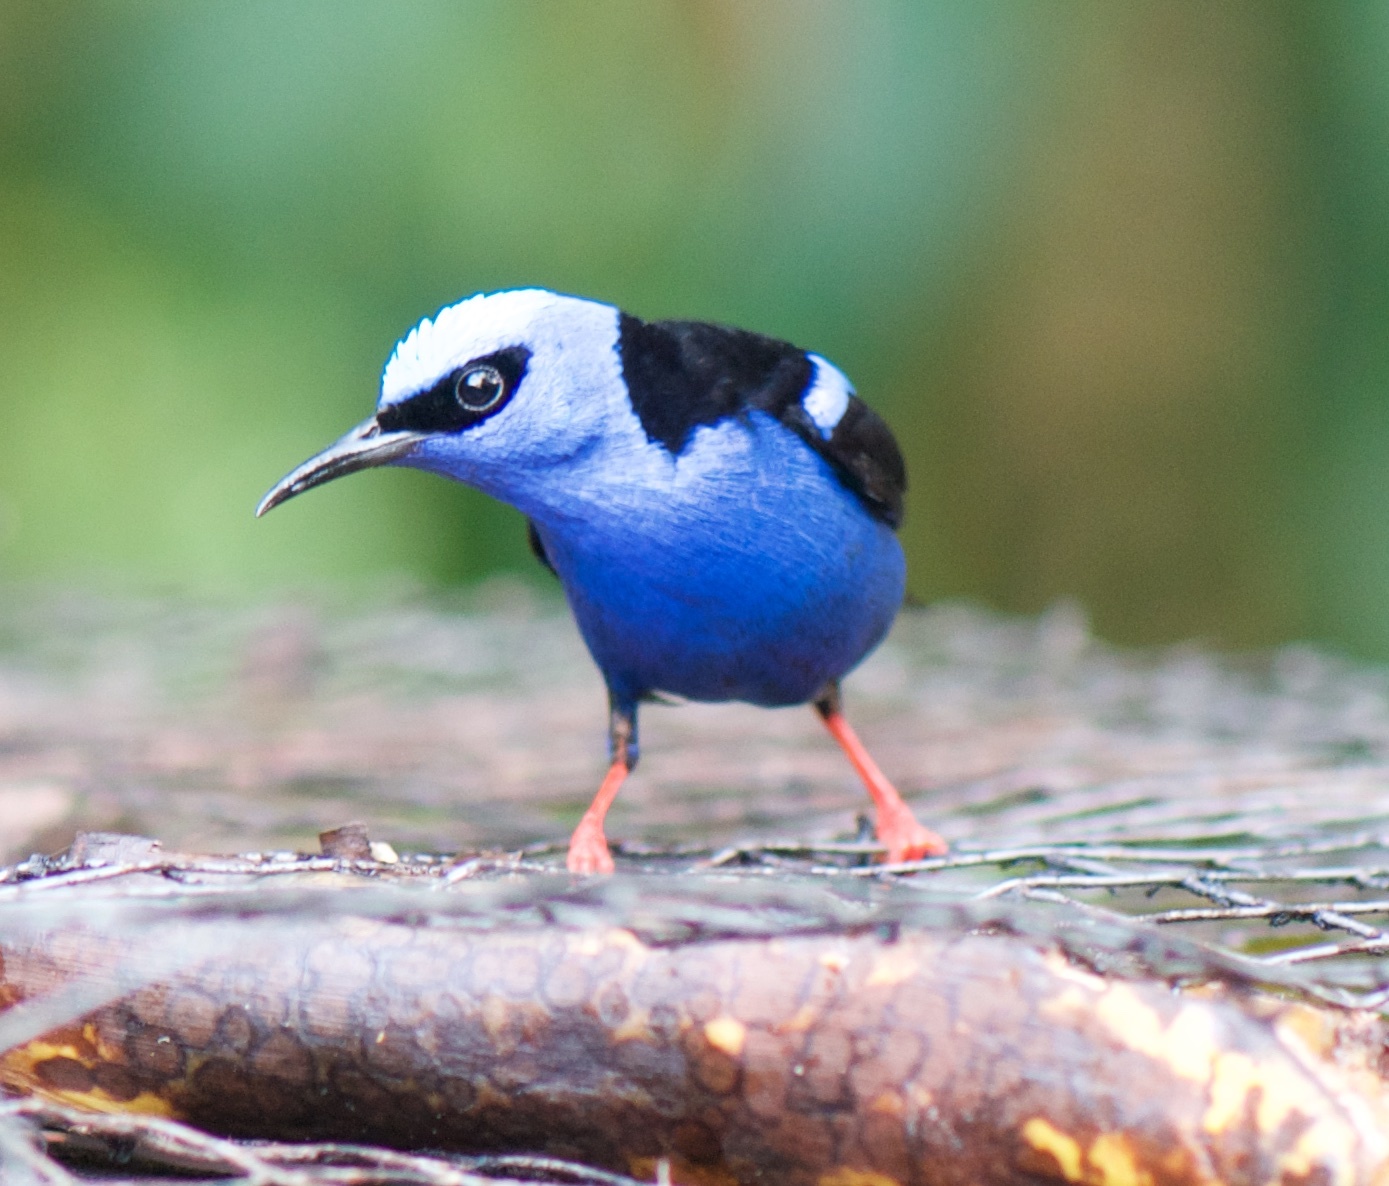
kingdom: Animalia
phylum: Chordata
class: Aves
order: Passeriformes
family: Thraupidae
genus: Cyanerpes
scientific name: Cyanerpes cyaneus
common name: Red-legged honeycreeper
